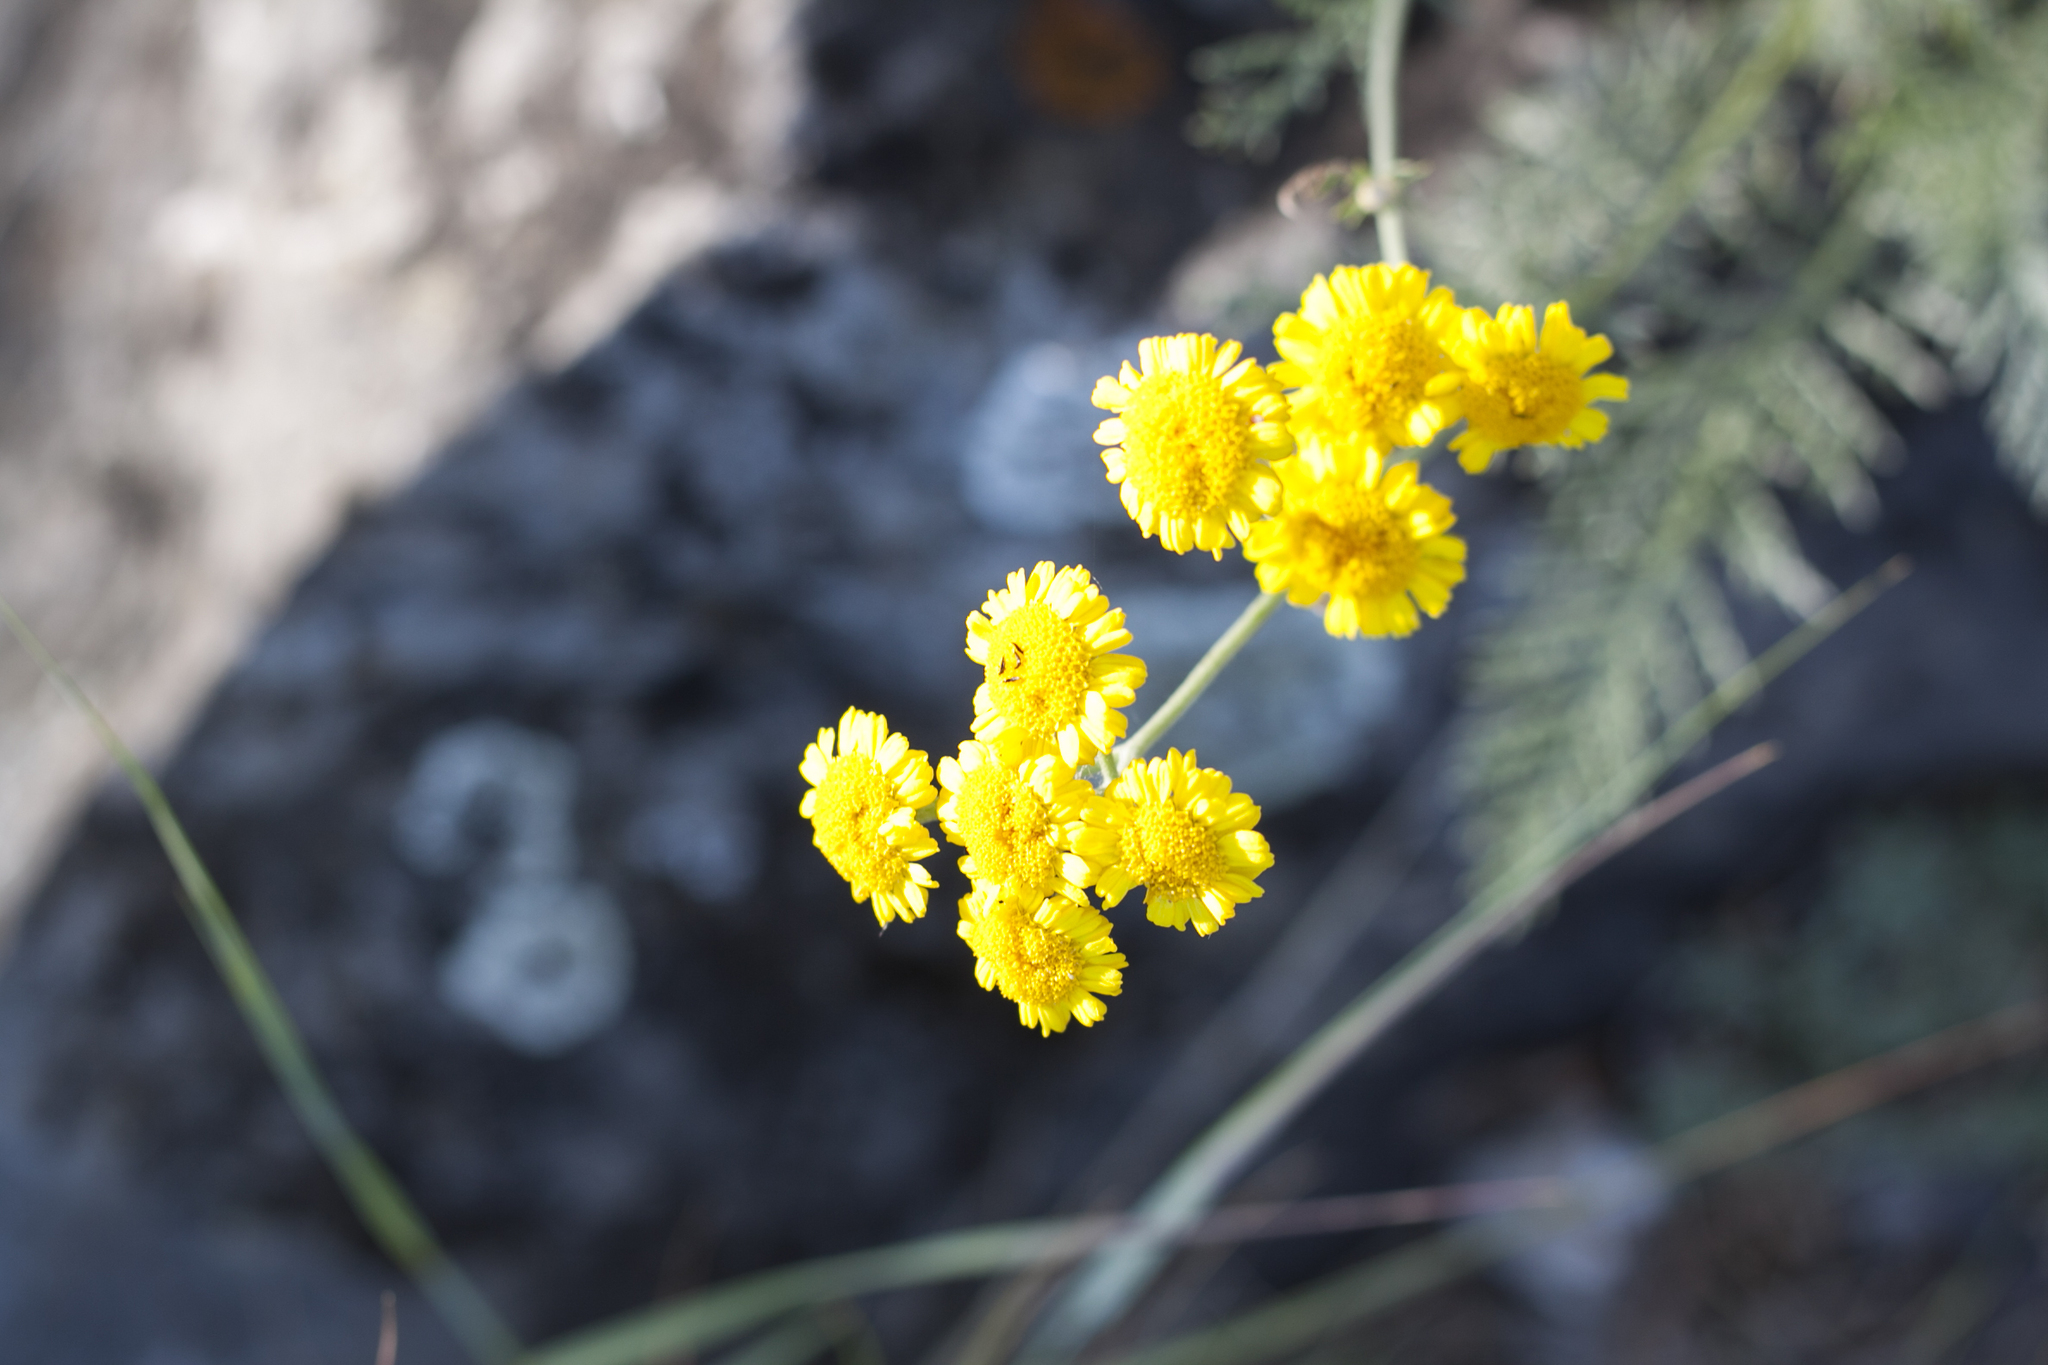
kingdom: Plantae
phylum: Tracheophyta
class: Magnoliopsida
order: Asterales
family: Asteraceae
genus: Tanacetum
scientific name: Tanacetum millefolium
